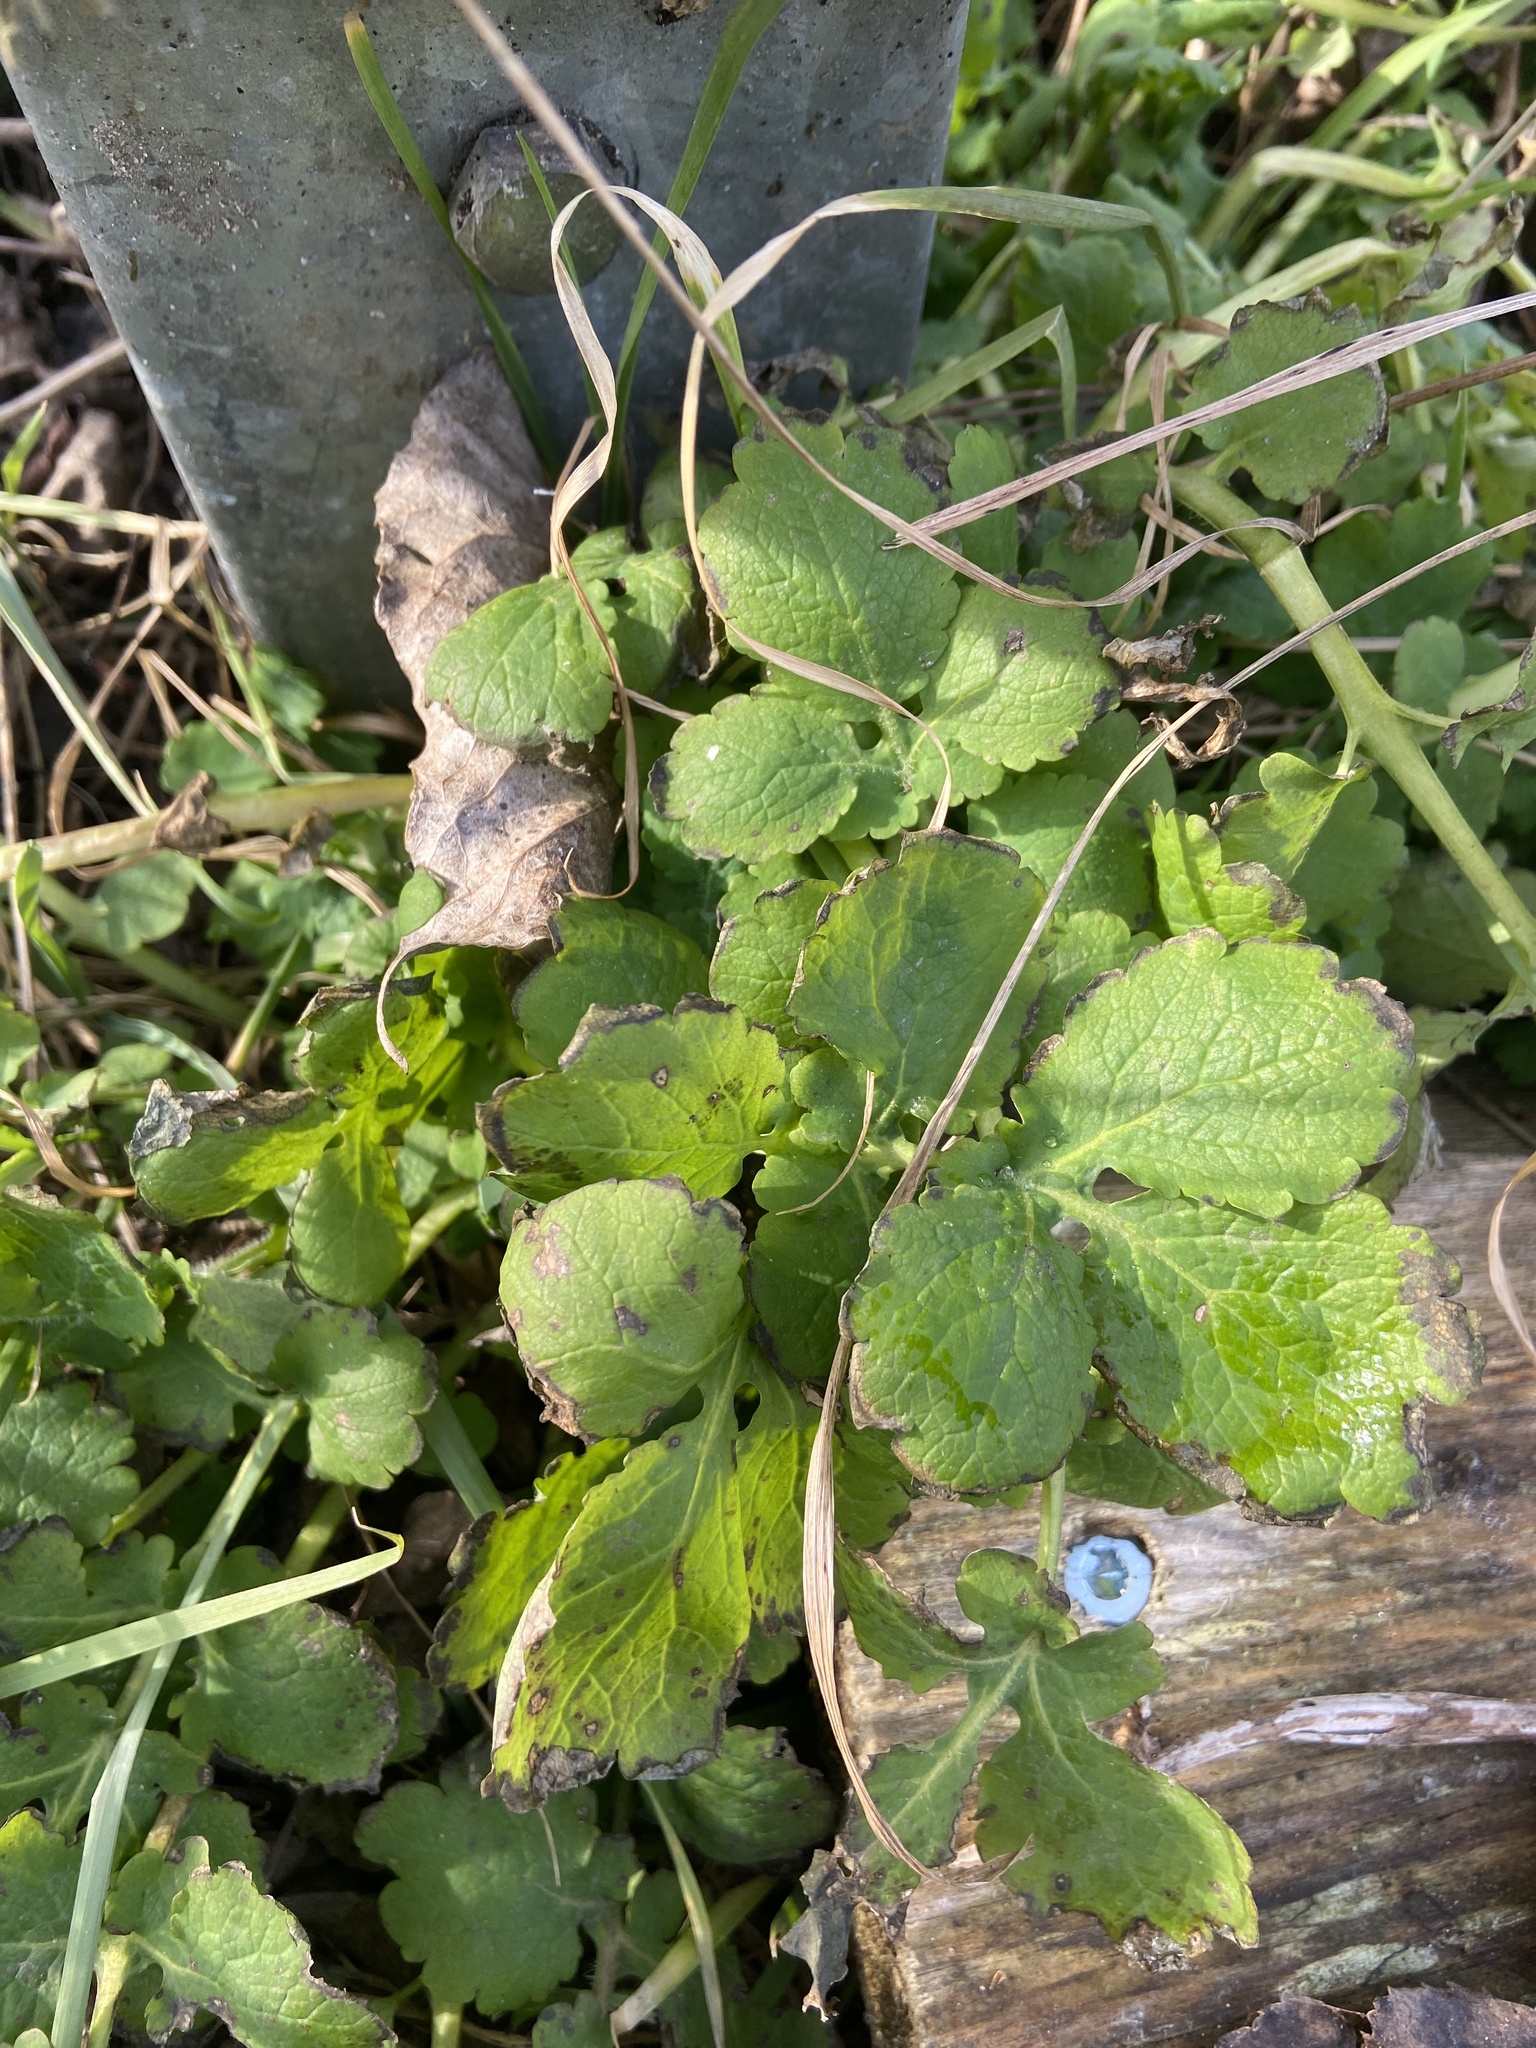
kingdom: Plantae
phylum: Tracheophyta
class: Magnoliopsida
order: Ranunculales
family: Papaveraceae
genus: Chelidonium
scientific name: Chelidonium majus
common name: Greater celandine
